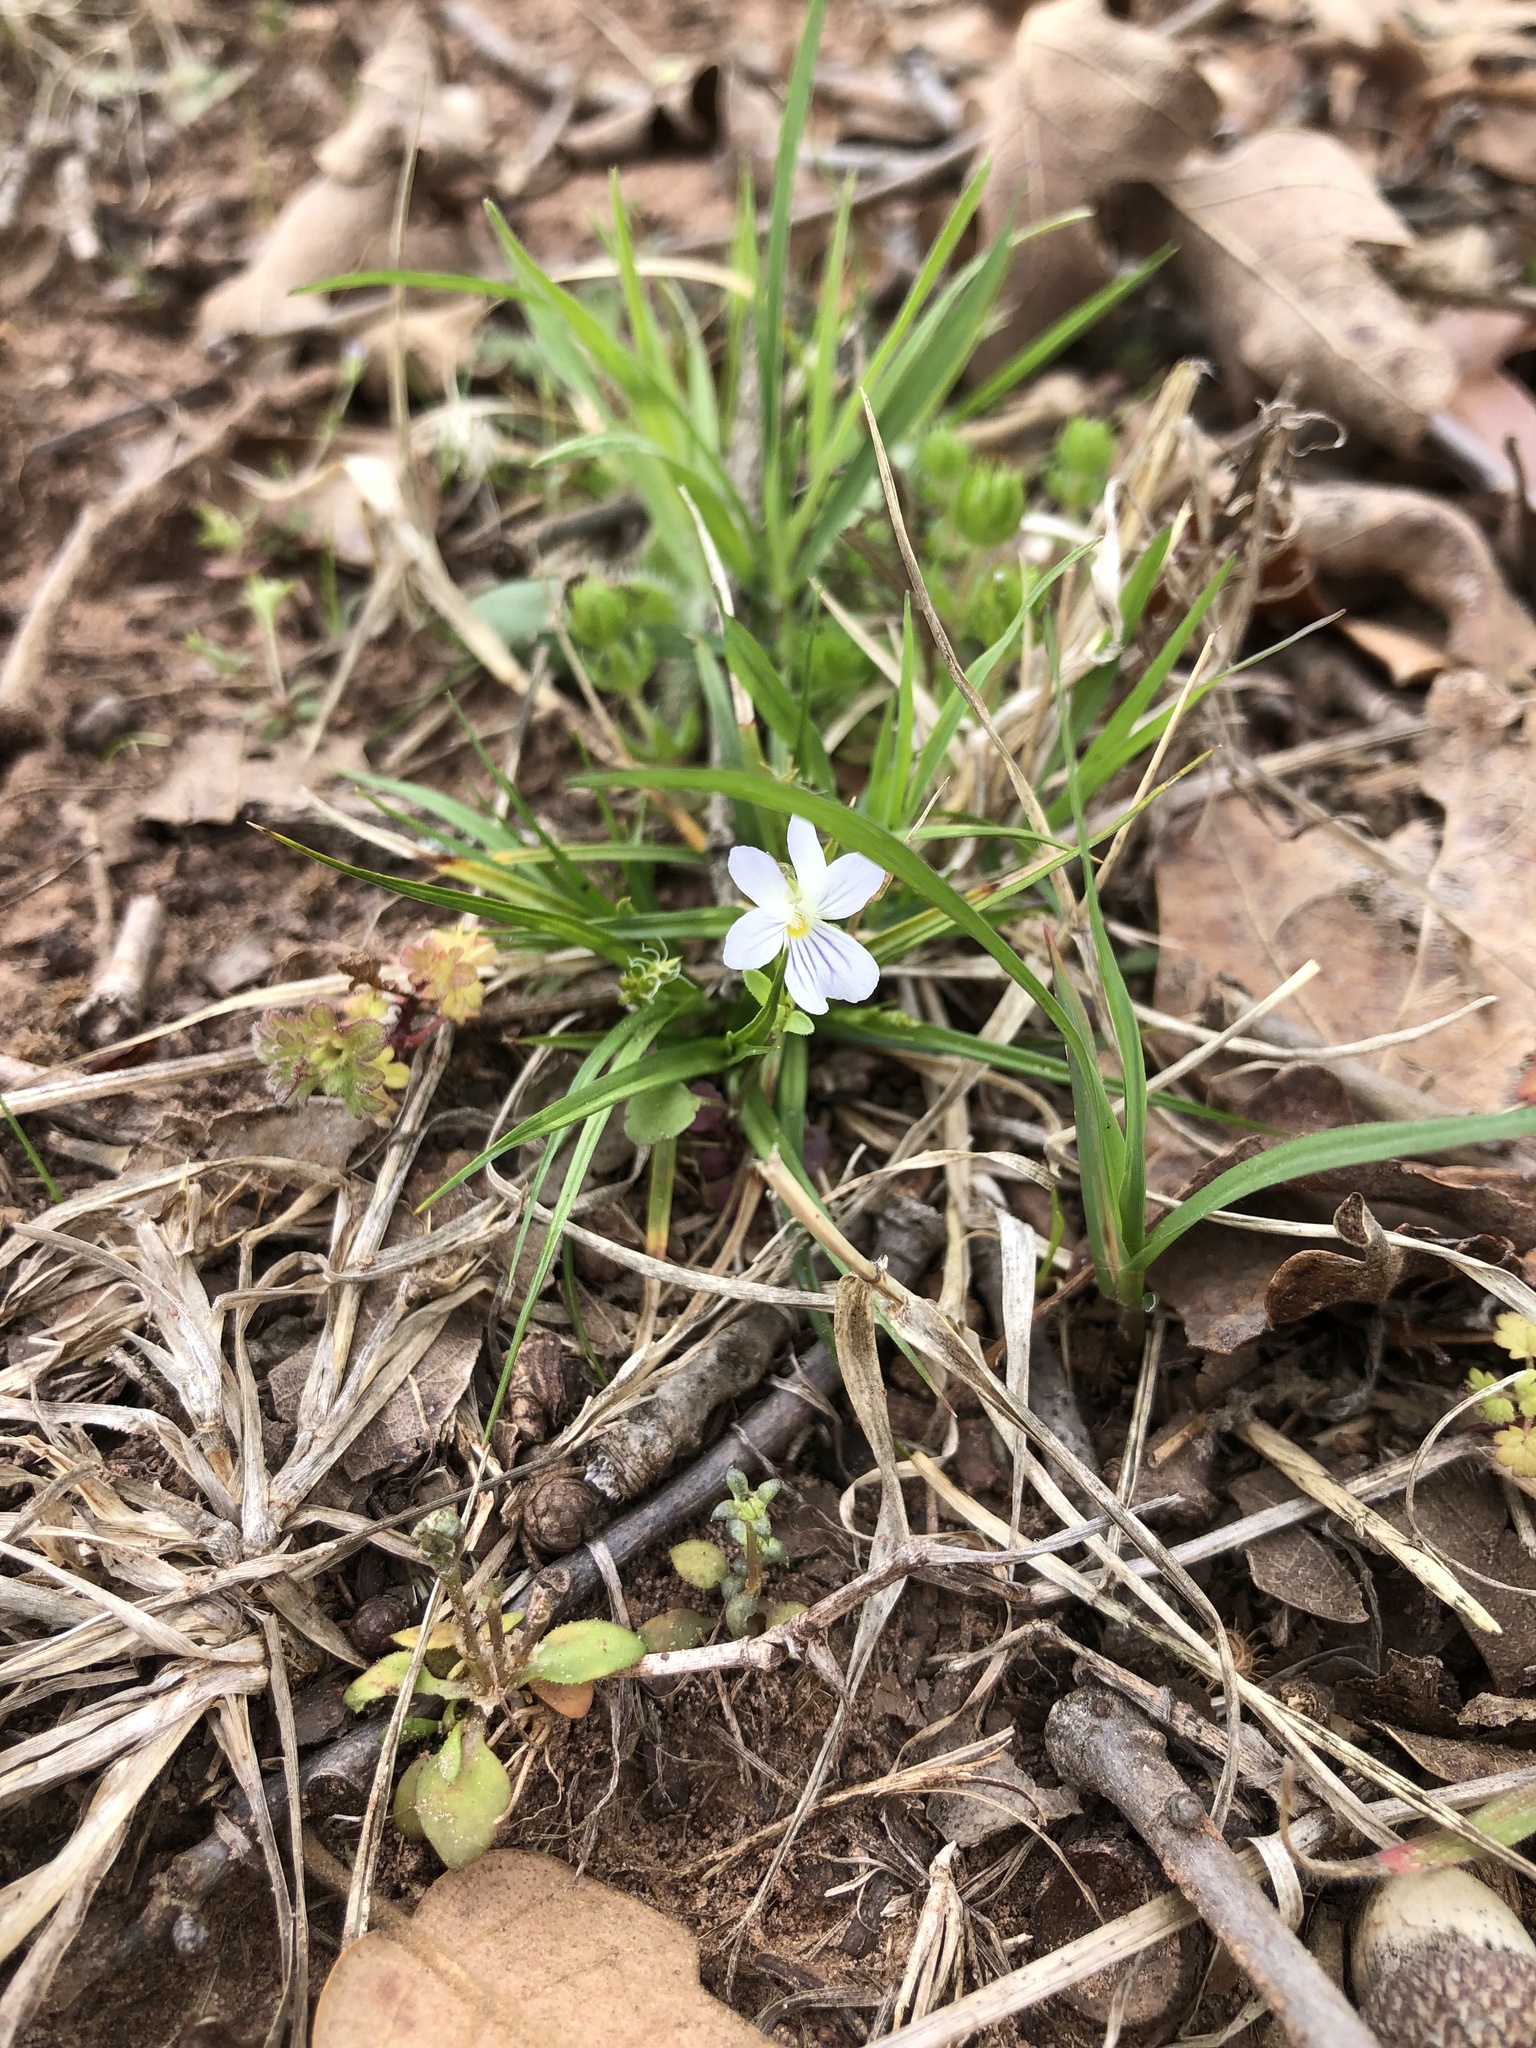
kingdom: Plantae
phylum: Tracheophyta
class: Magnoliopsida
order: Malpighiales
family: Violaceae
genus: Viola
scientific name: Viola rafinesquei
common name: American field pansy
